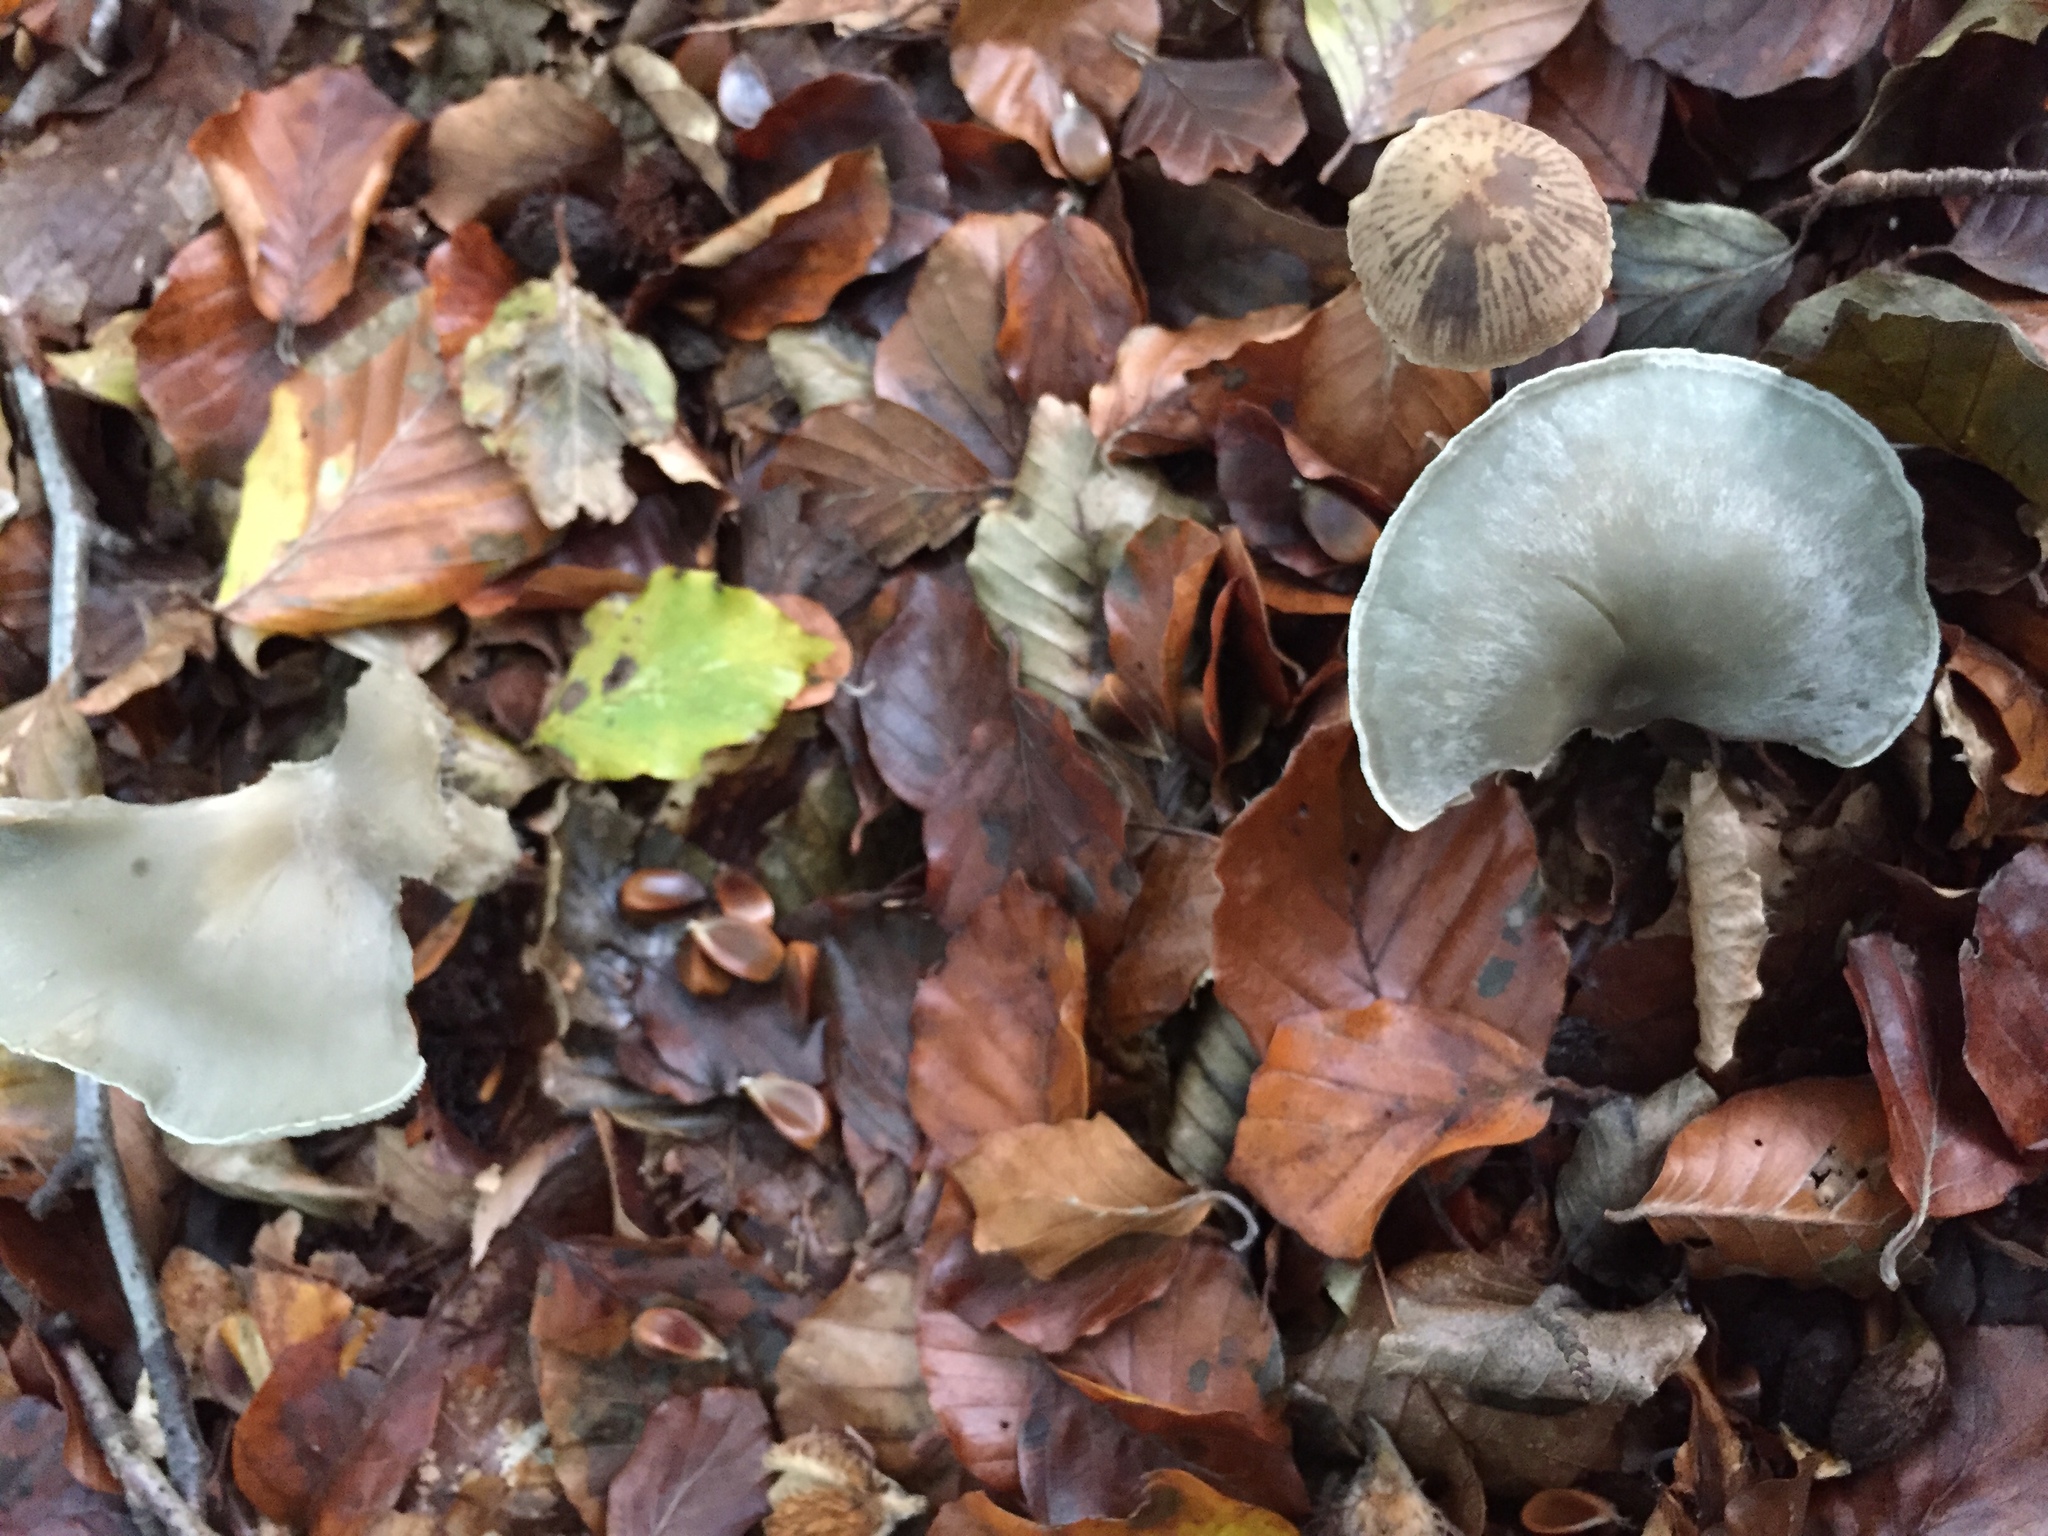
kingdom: Fungi
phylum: Basidiomycota
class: Agaricomycetes
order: Agaricales
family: Tricholomataceae
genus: Collybia
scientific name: Collybia
